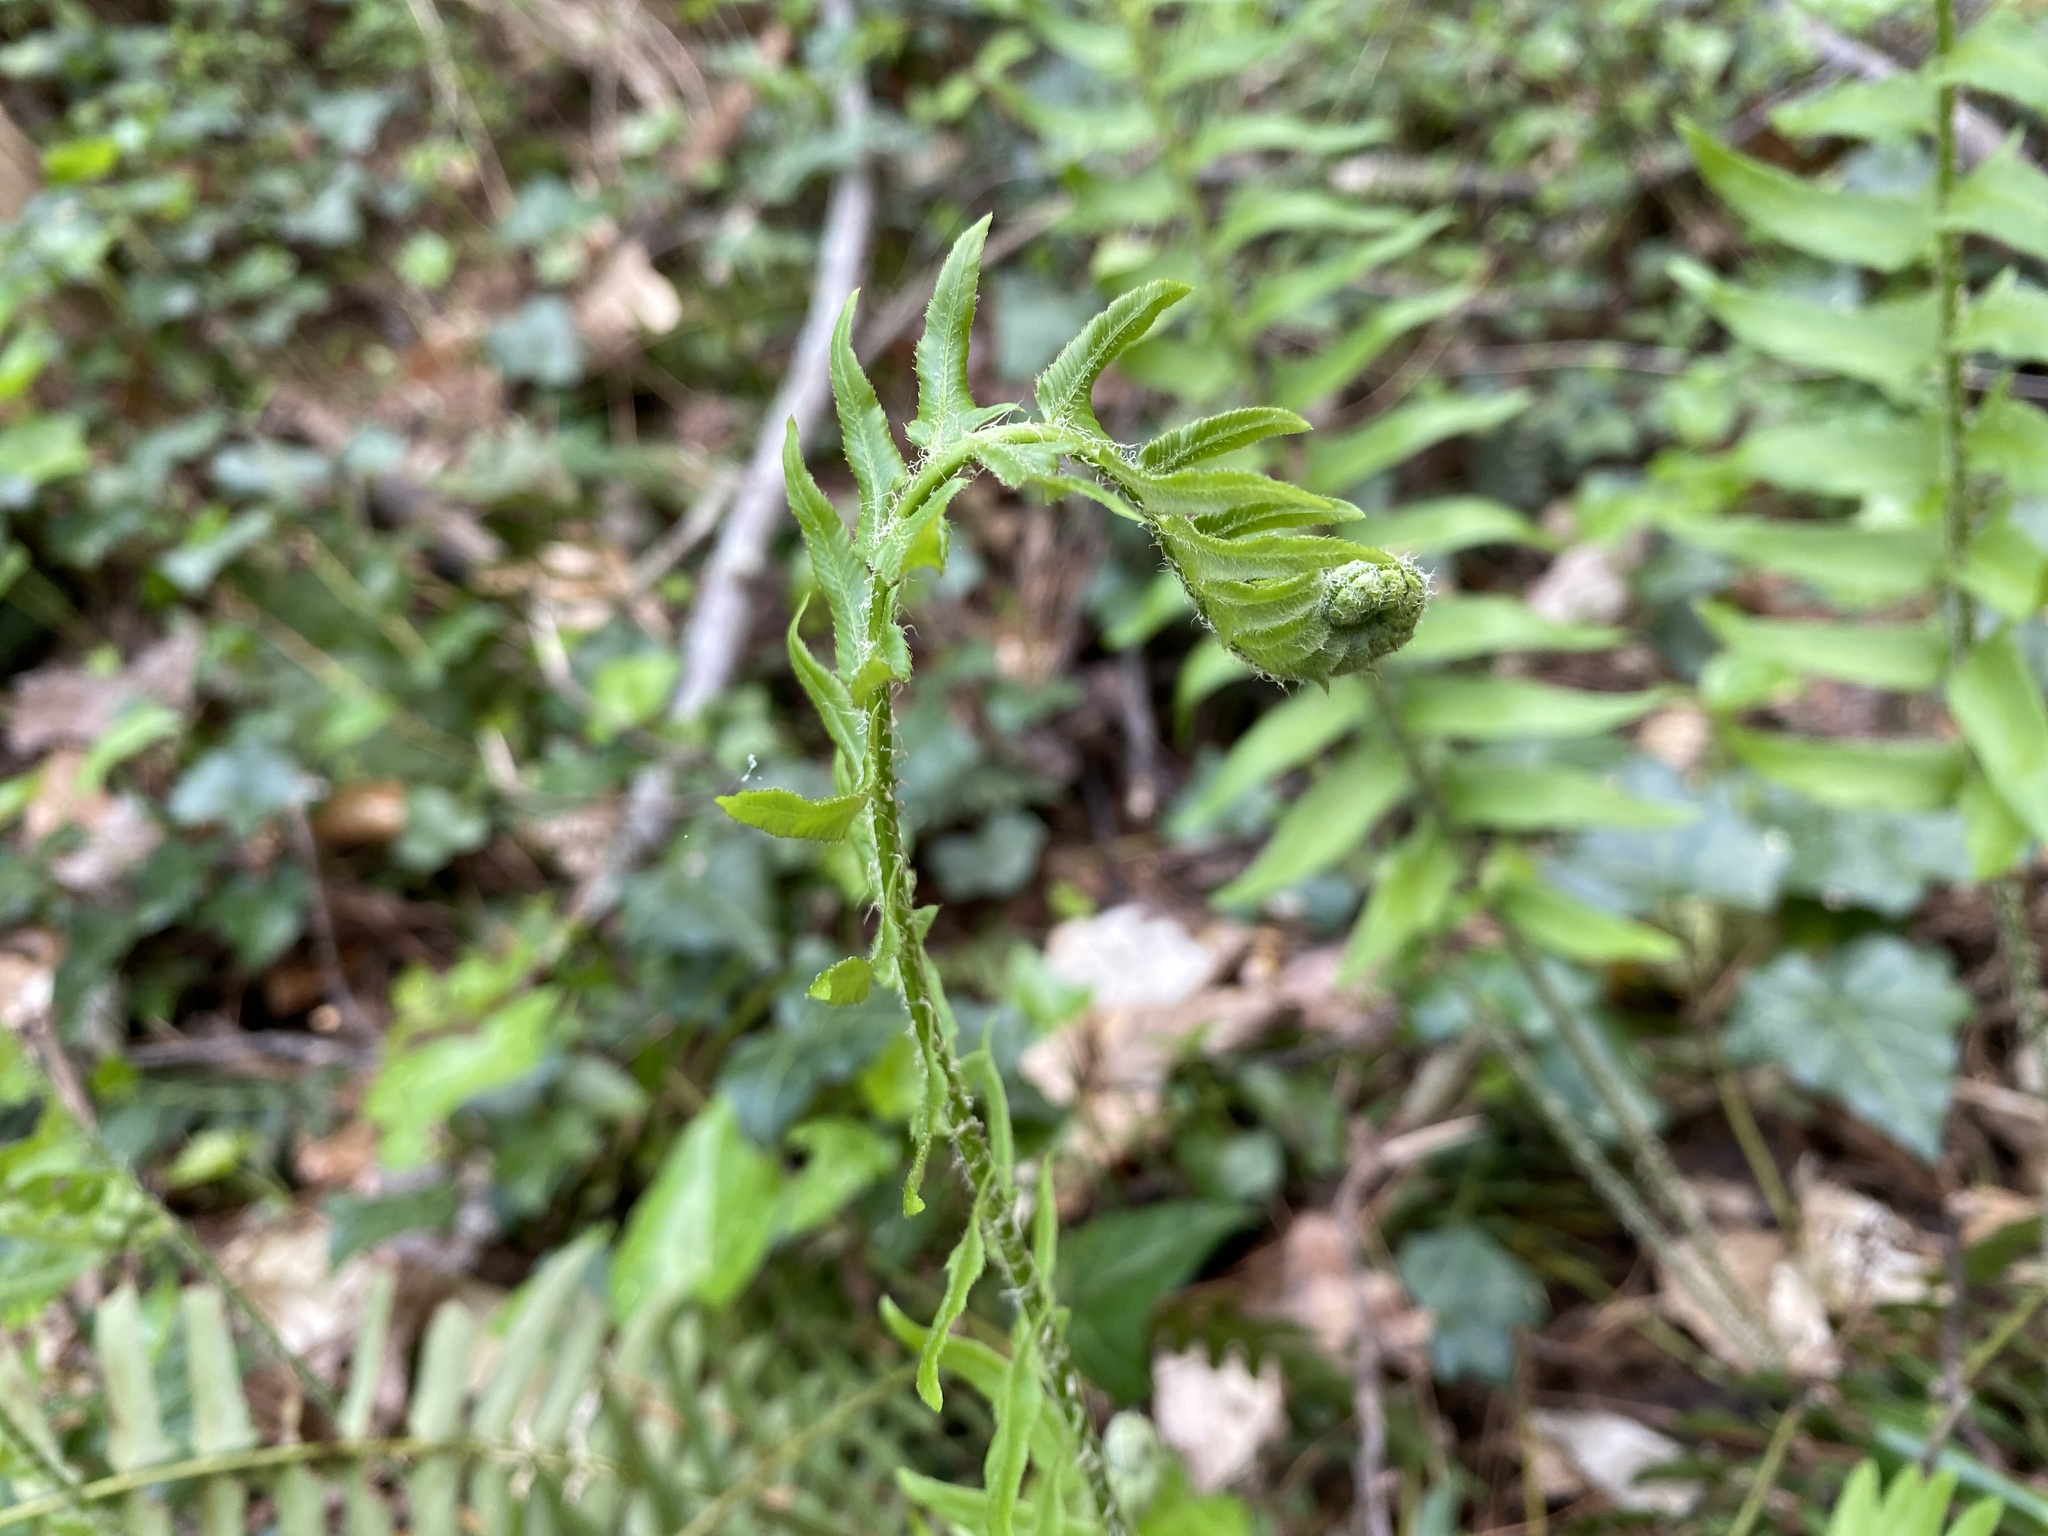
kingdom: Plantae
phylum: Tracheophyta
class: Polypodiopsida
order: Polypodiales
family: Dryopteridaceae
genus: Polystichum
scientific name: Polystichum acrostichoides
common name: Christmas fern
